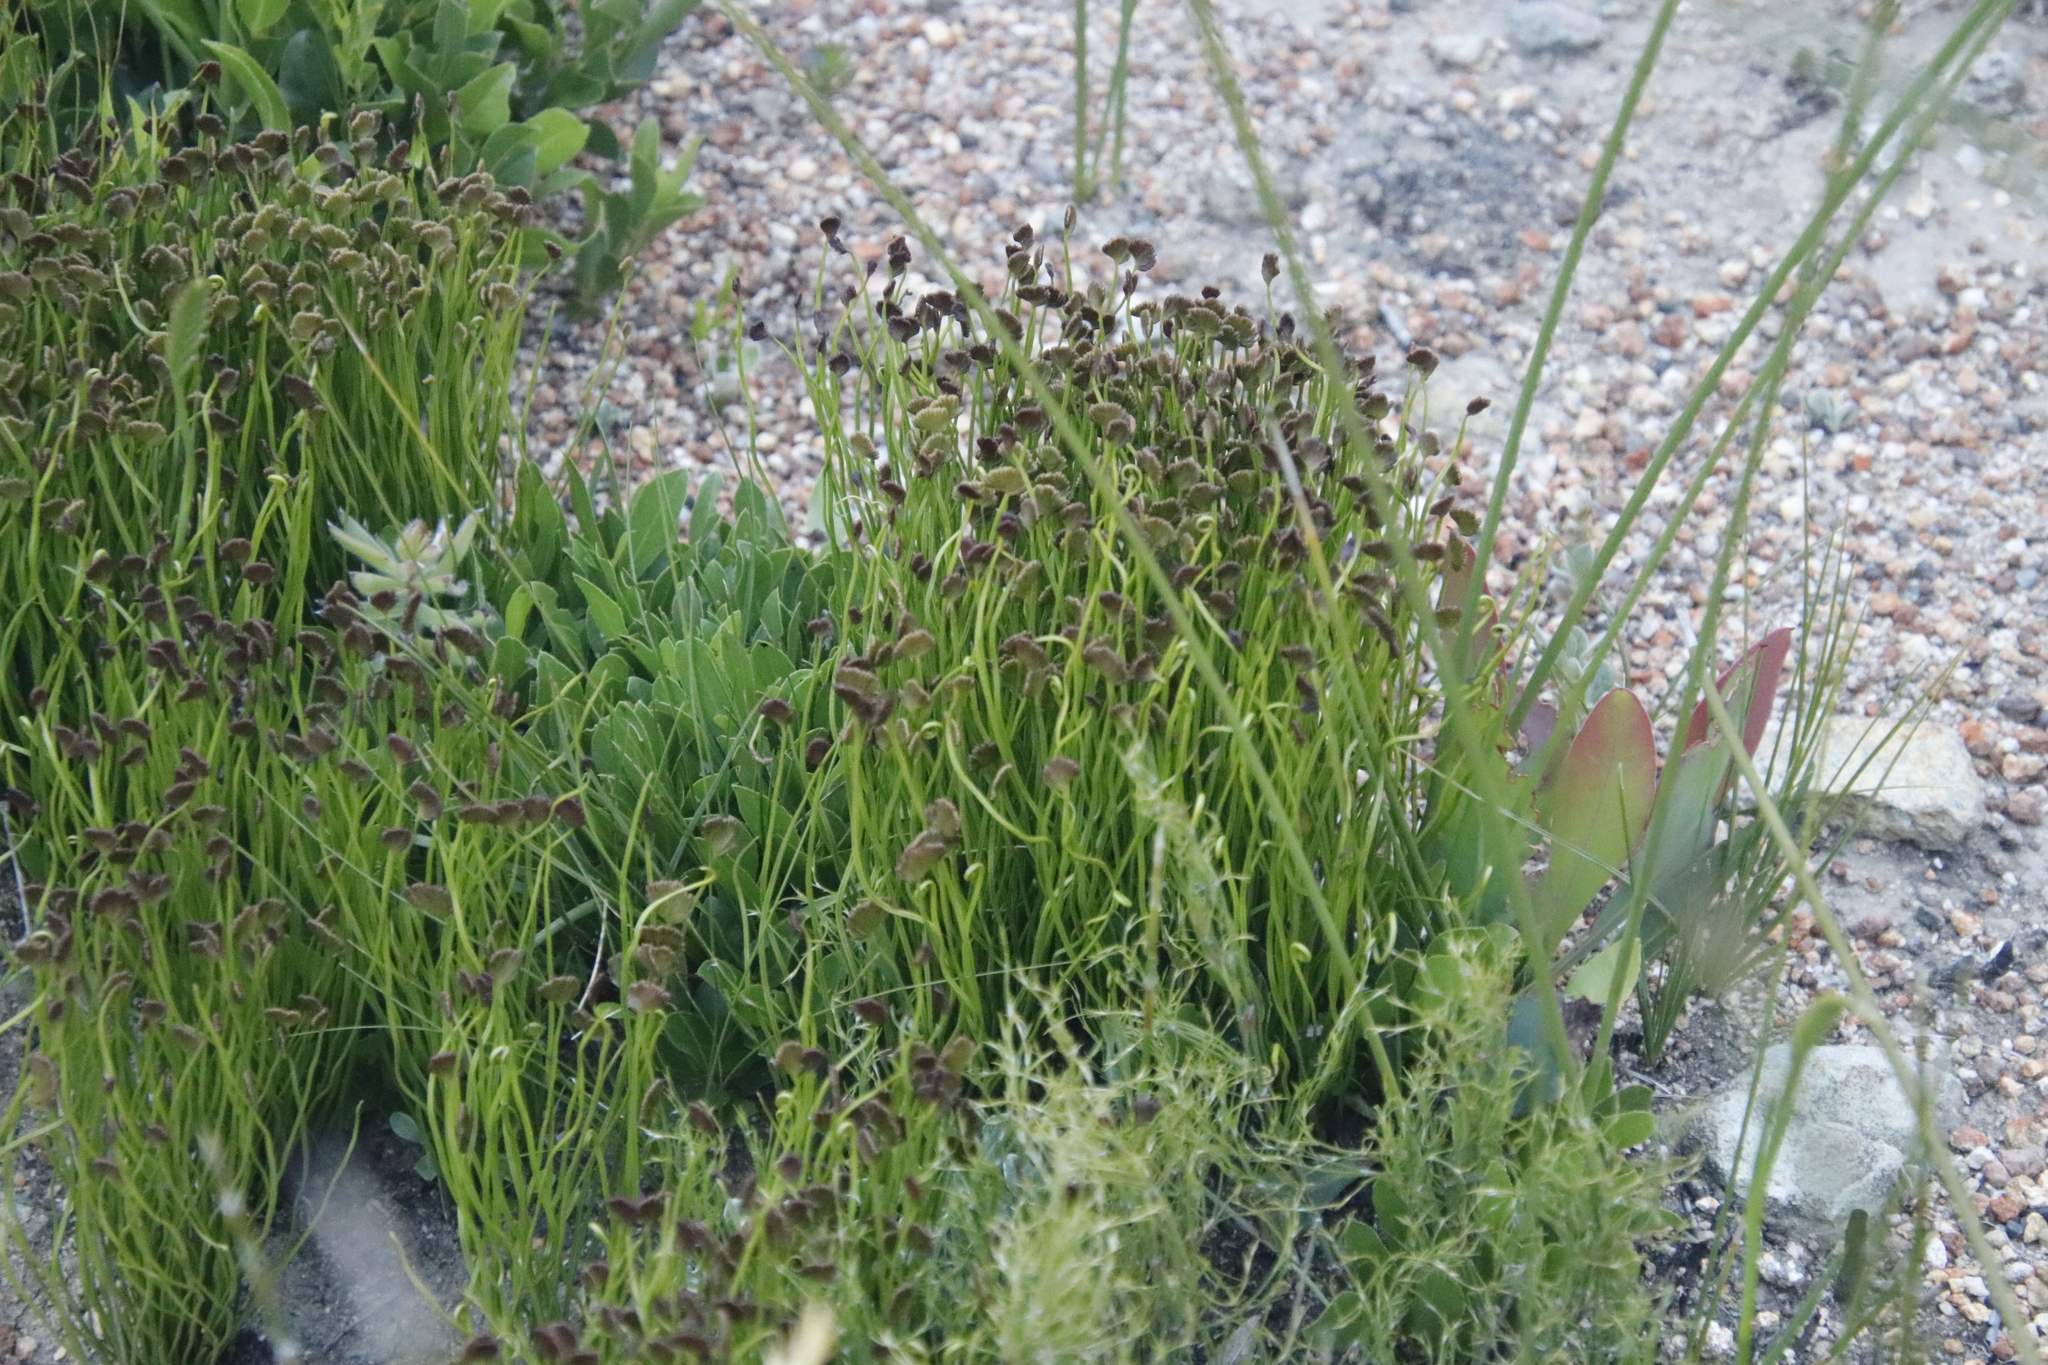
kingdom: Plantae
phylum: Tracheophyta
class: Polypodiopsida
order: Schizaeales
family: Schizaeaceae
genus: Schizaea
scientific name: Schizaea pectinata
